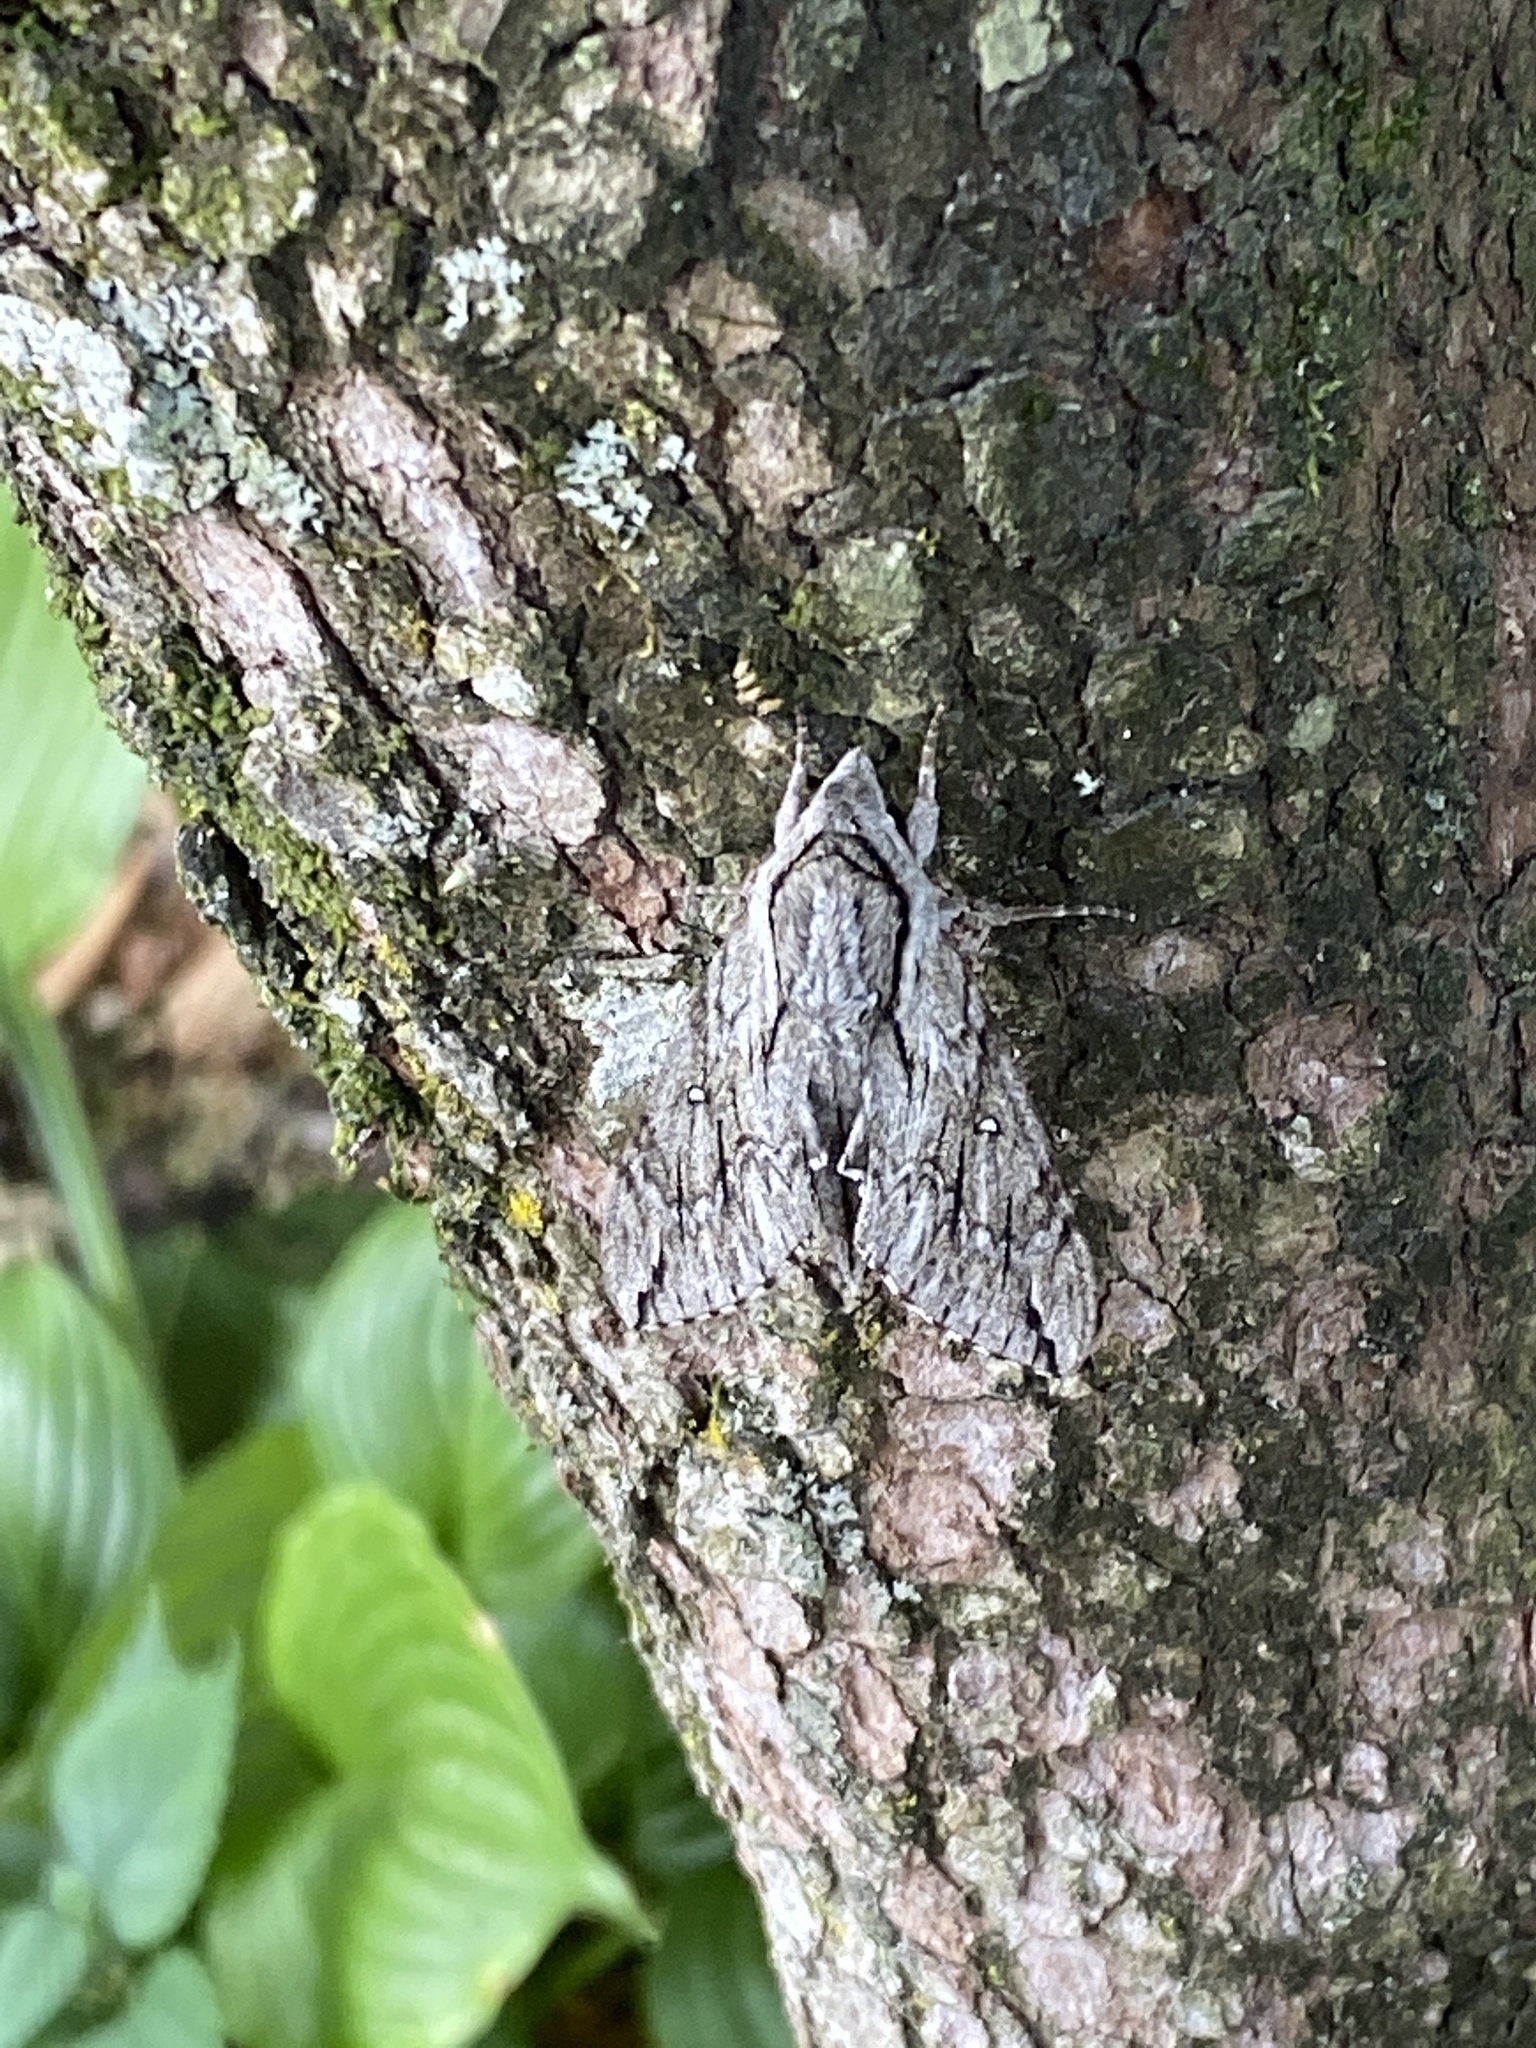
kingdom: Animalia
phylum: Arthropoda
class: Insecta
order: Lepidoptera
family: Sphingidae
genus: Paratrea
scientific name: Paratrea plebeja
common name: Plebian sphinx
